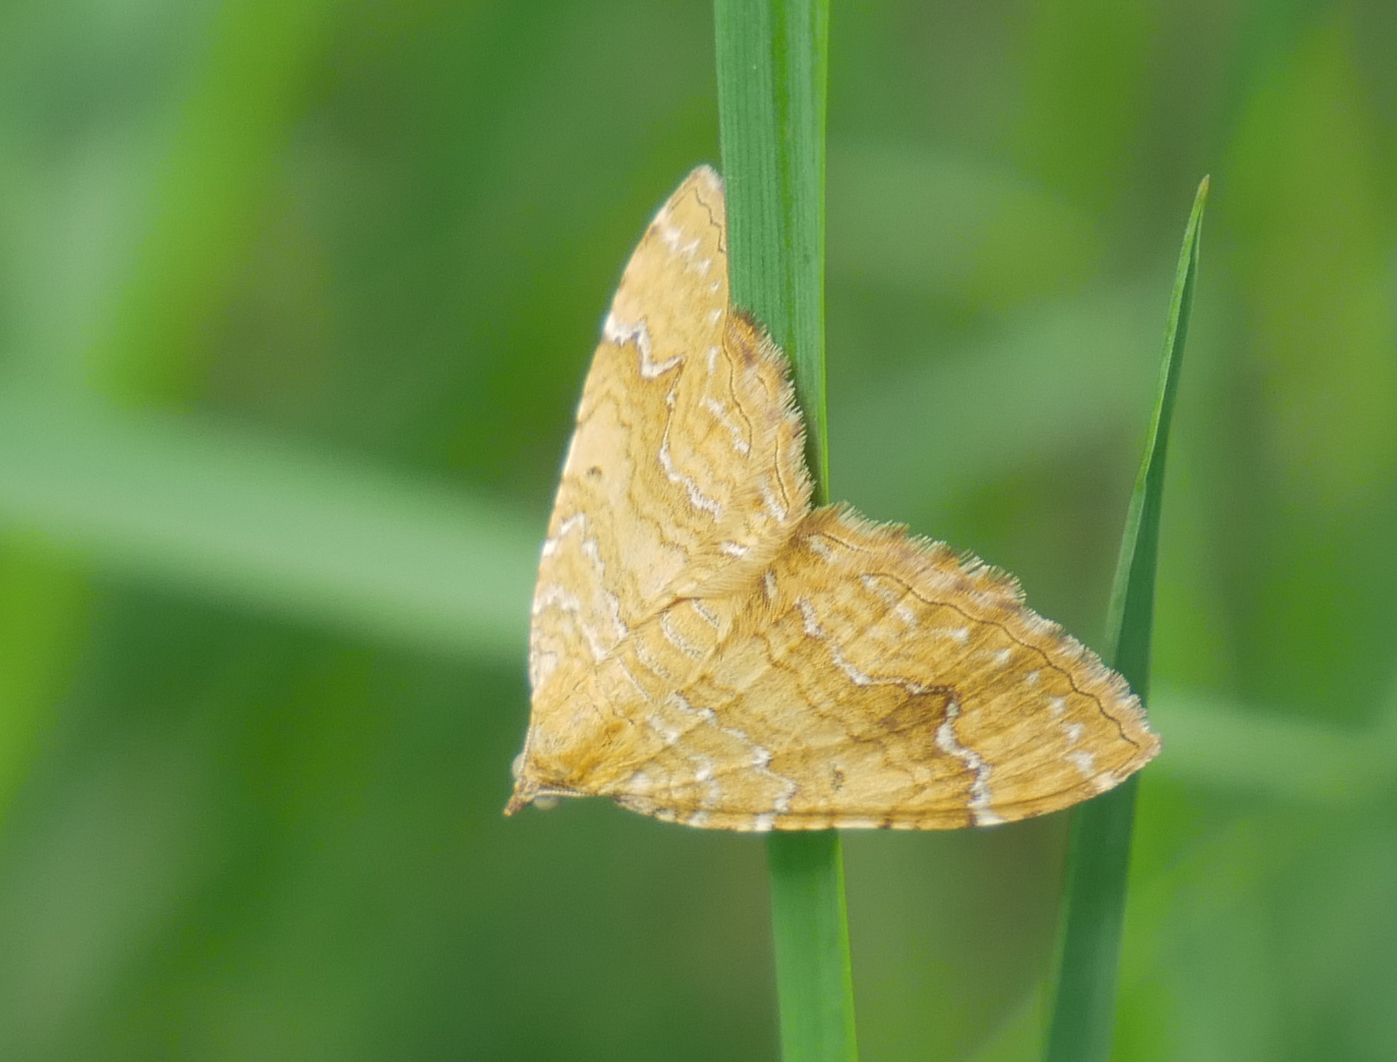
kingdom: Animalia
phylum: Arthropoda
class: Insecta
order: Lepidoptera
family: Geometridae
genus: Camptogramma
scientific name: Camptogramma bilineata
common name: Yellow shell
